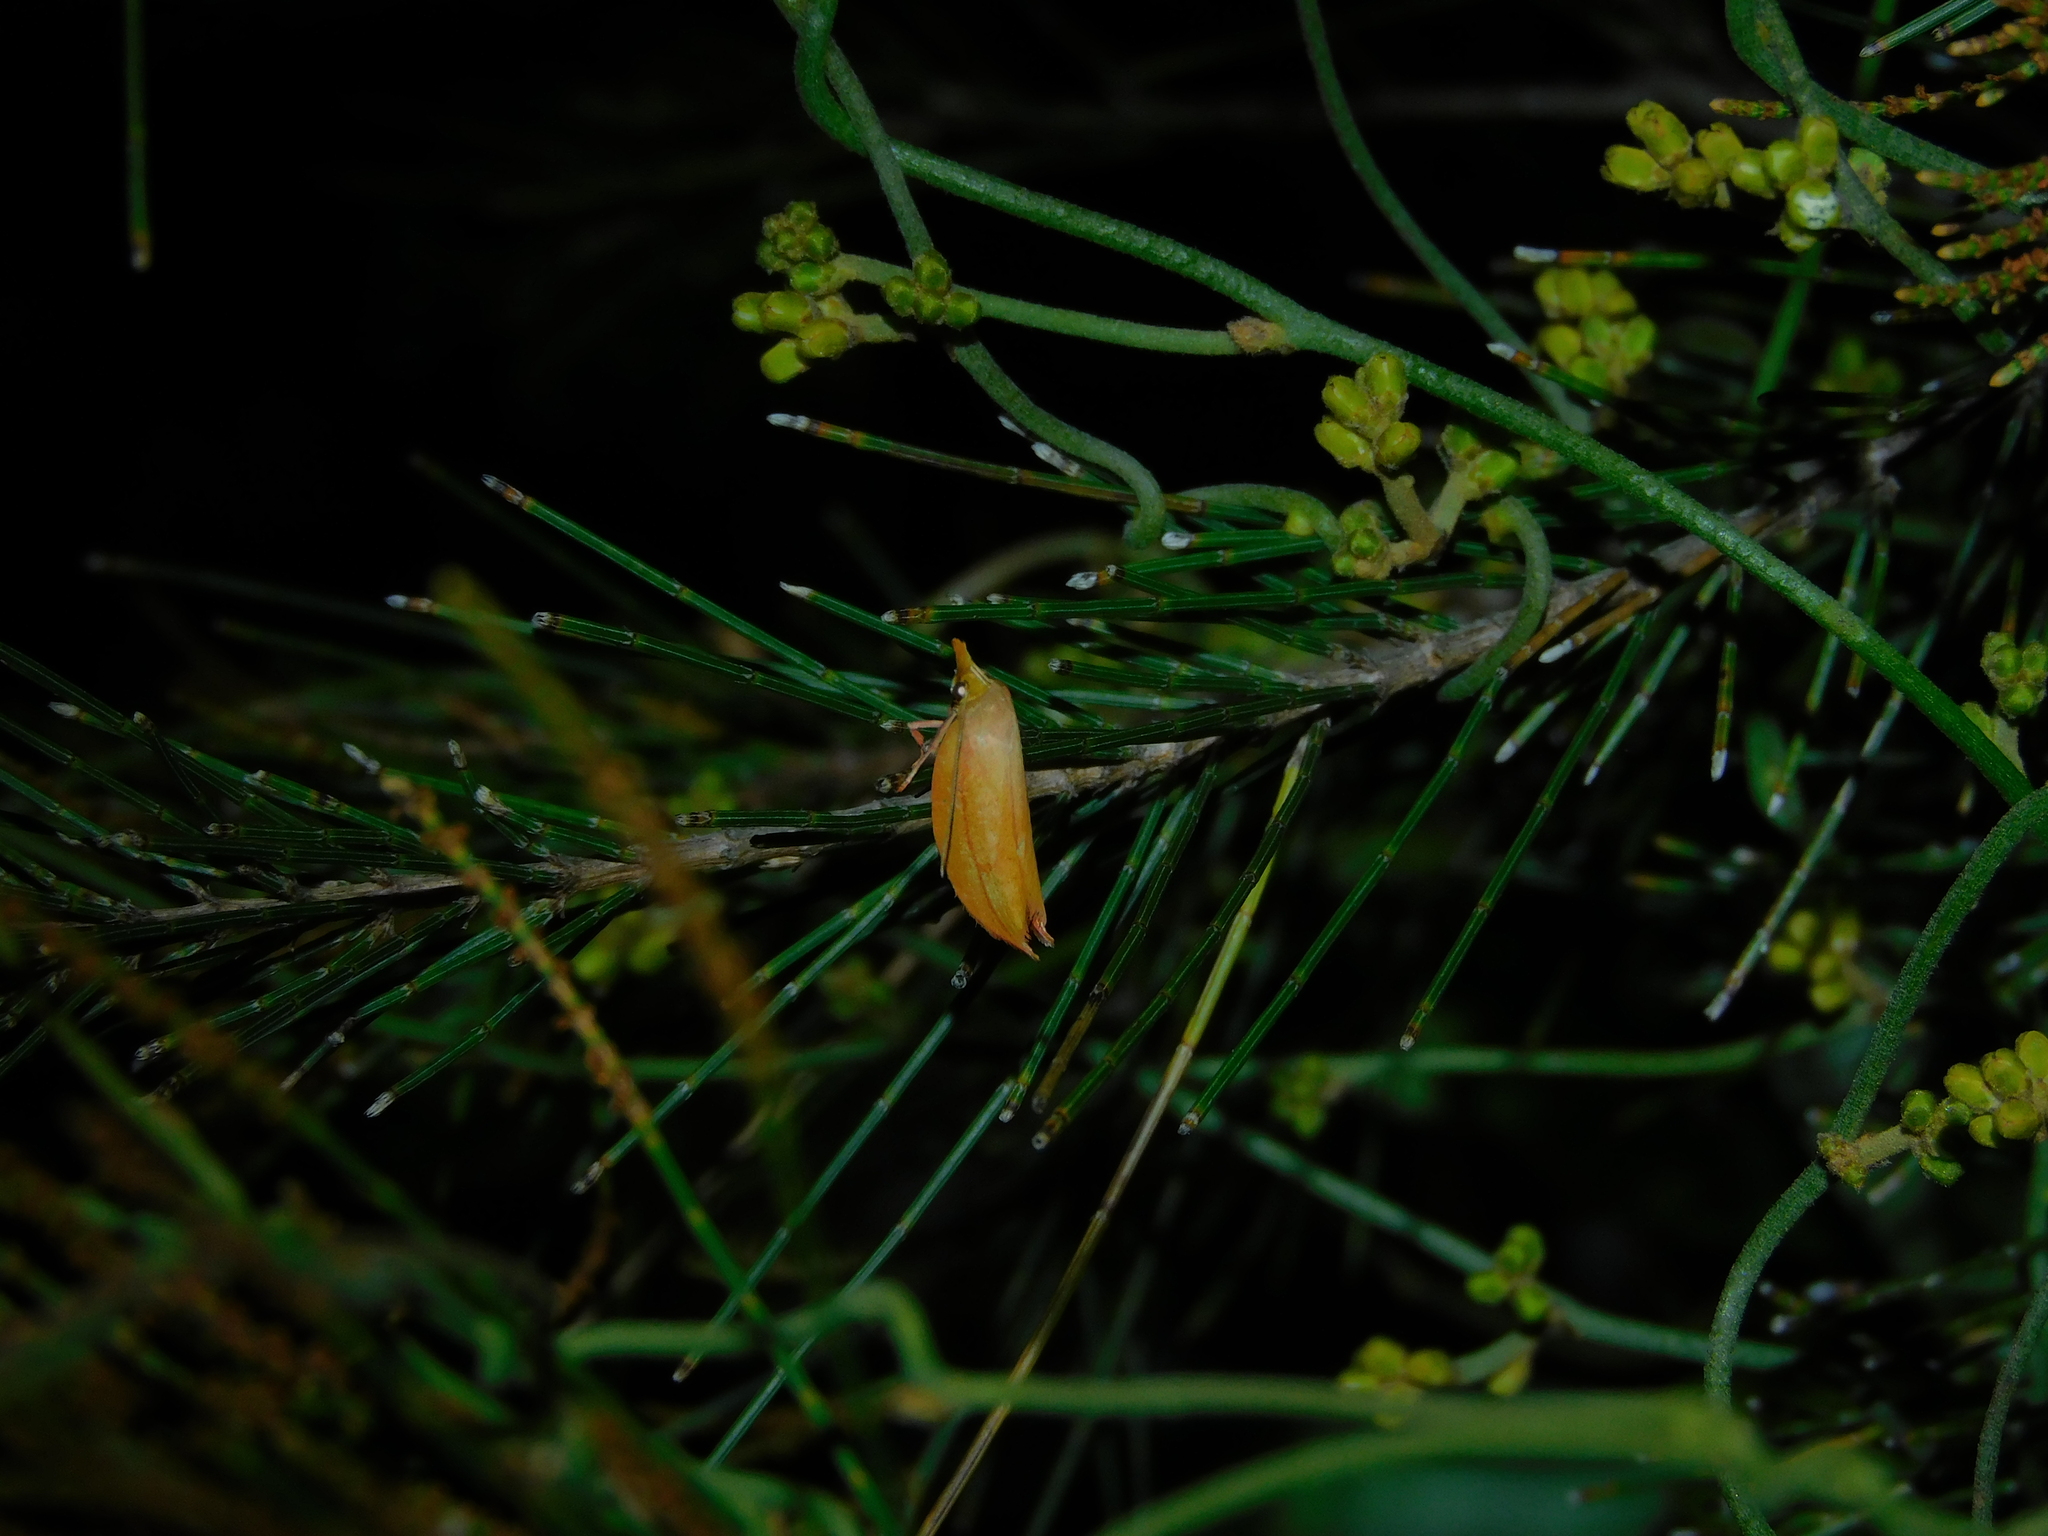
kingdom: Animalia
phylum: Arthropoda
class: Insecta
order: Lepidoptera
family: Oecophoridae
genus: Wingia
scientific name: Wingia aurata
